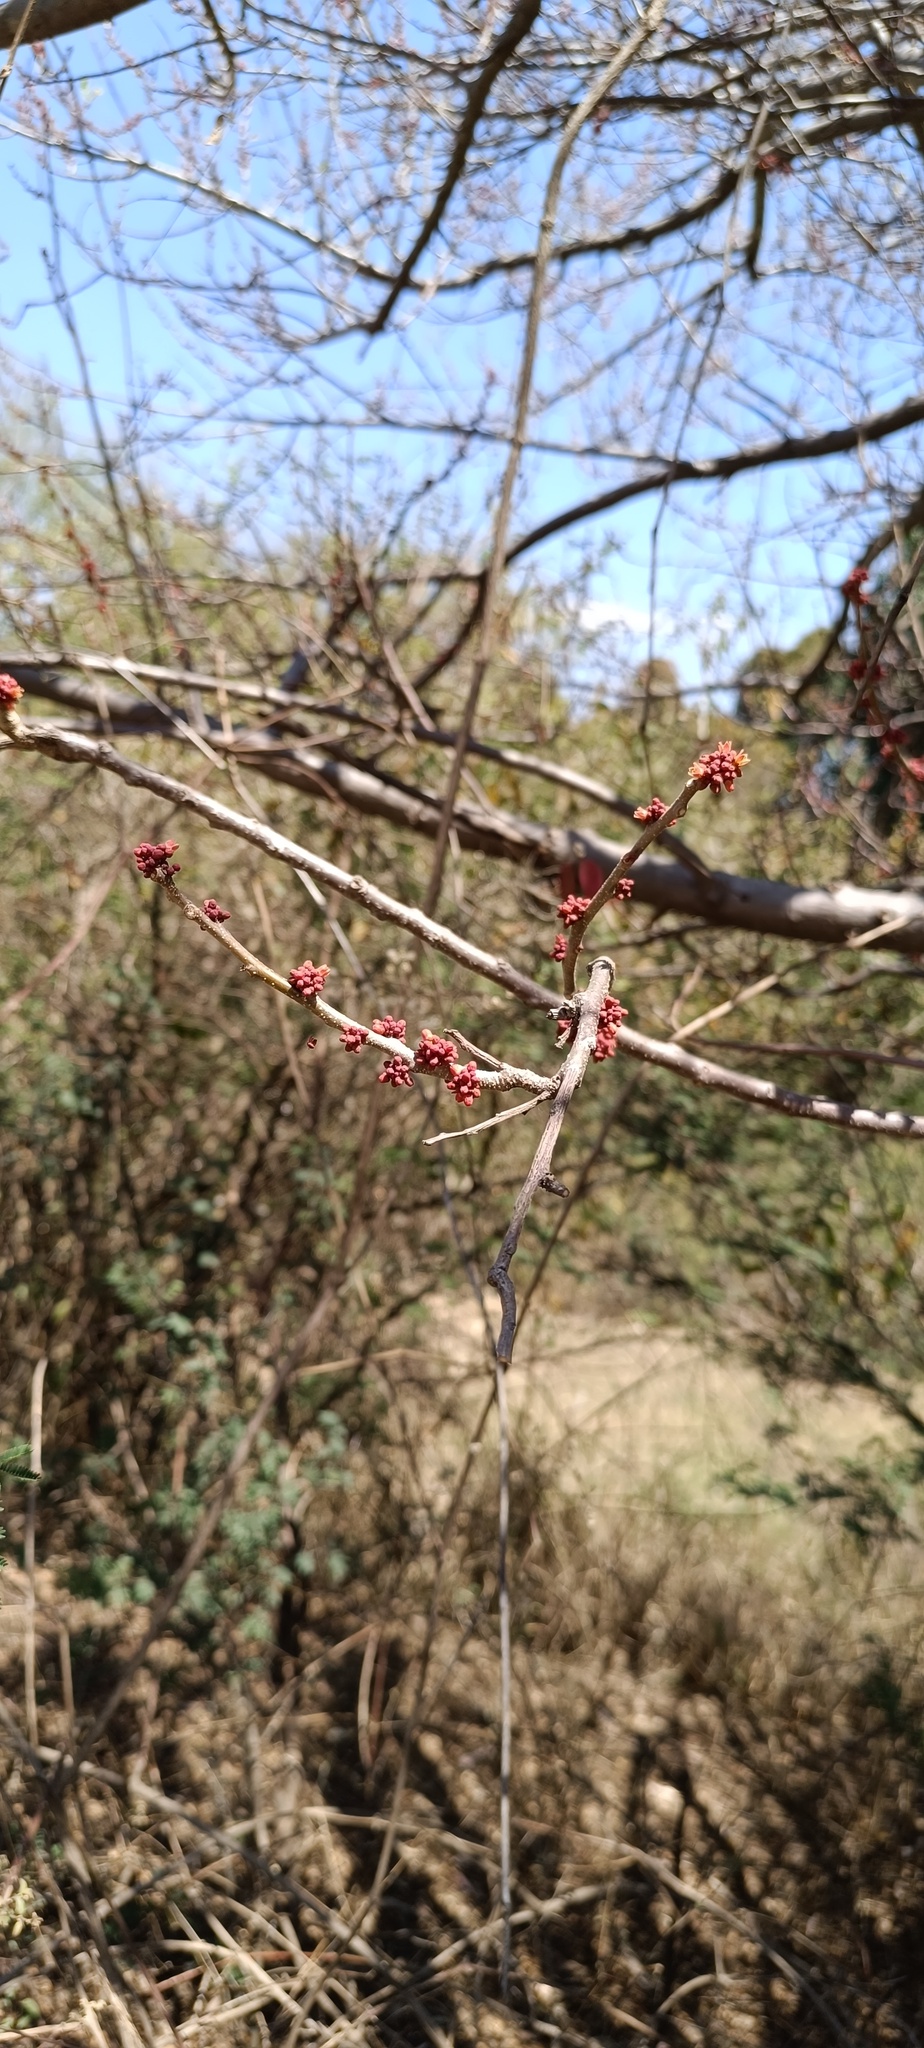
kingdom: Plantae
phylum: Tracheophyta
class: Magnoliopsida
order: Sapindales
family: Anacardiaceae
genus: Spondias
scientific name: Spondias purpurea
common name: Purple mombin
